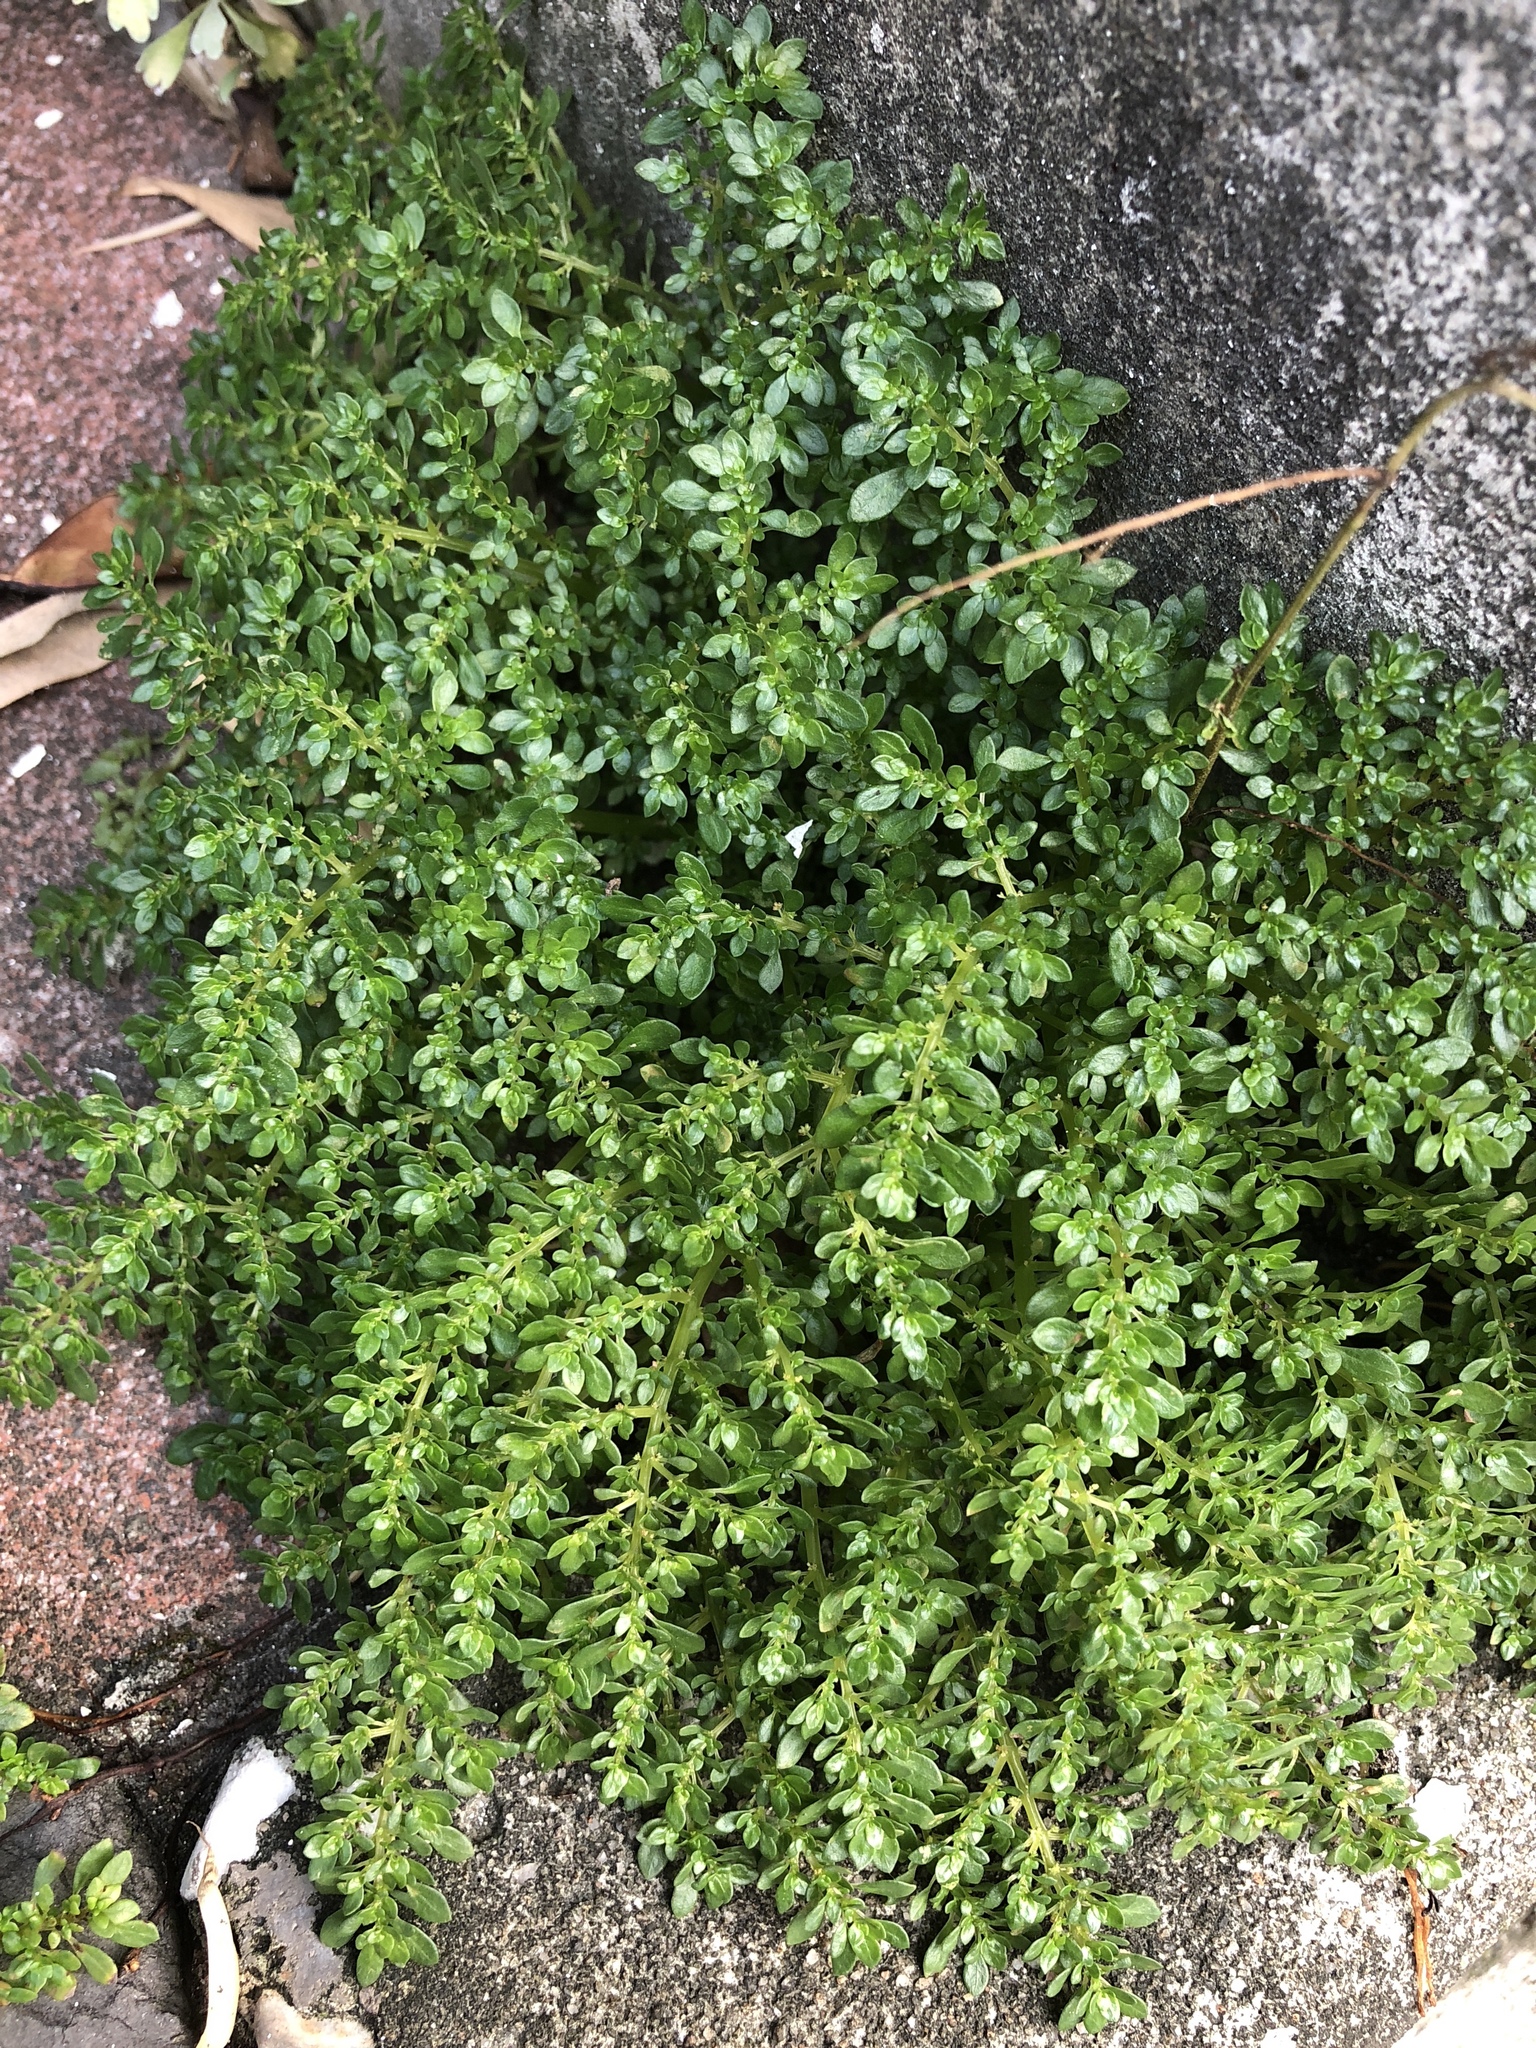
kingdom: Plantae
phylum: Tracheophyta
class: Magnoliopsida
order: Rosales
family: Urticaceae
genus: Pilea
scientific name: Pilea microphylla
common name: Artillery-plant
